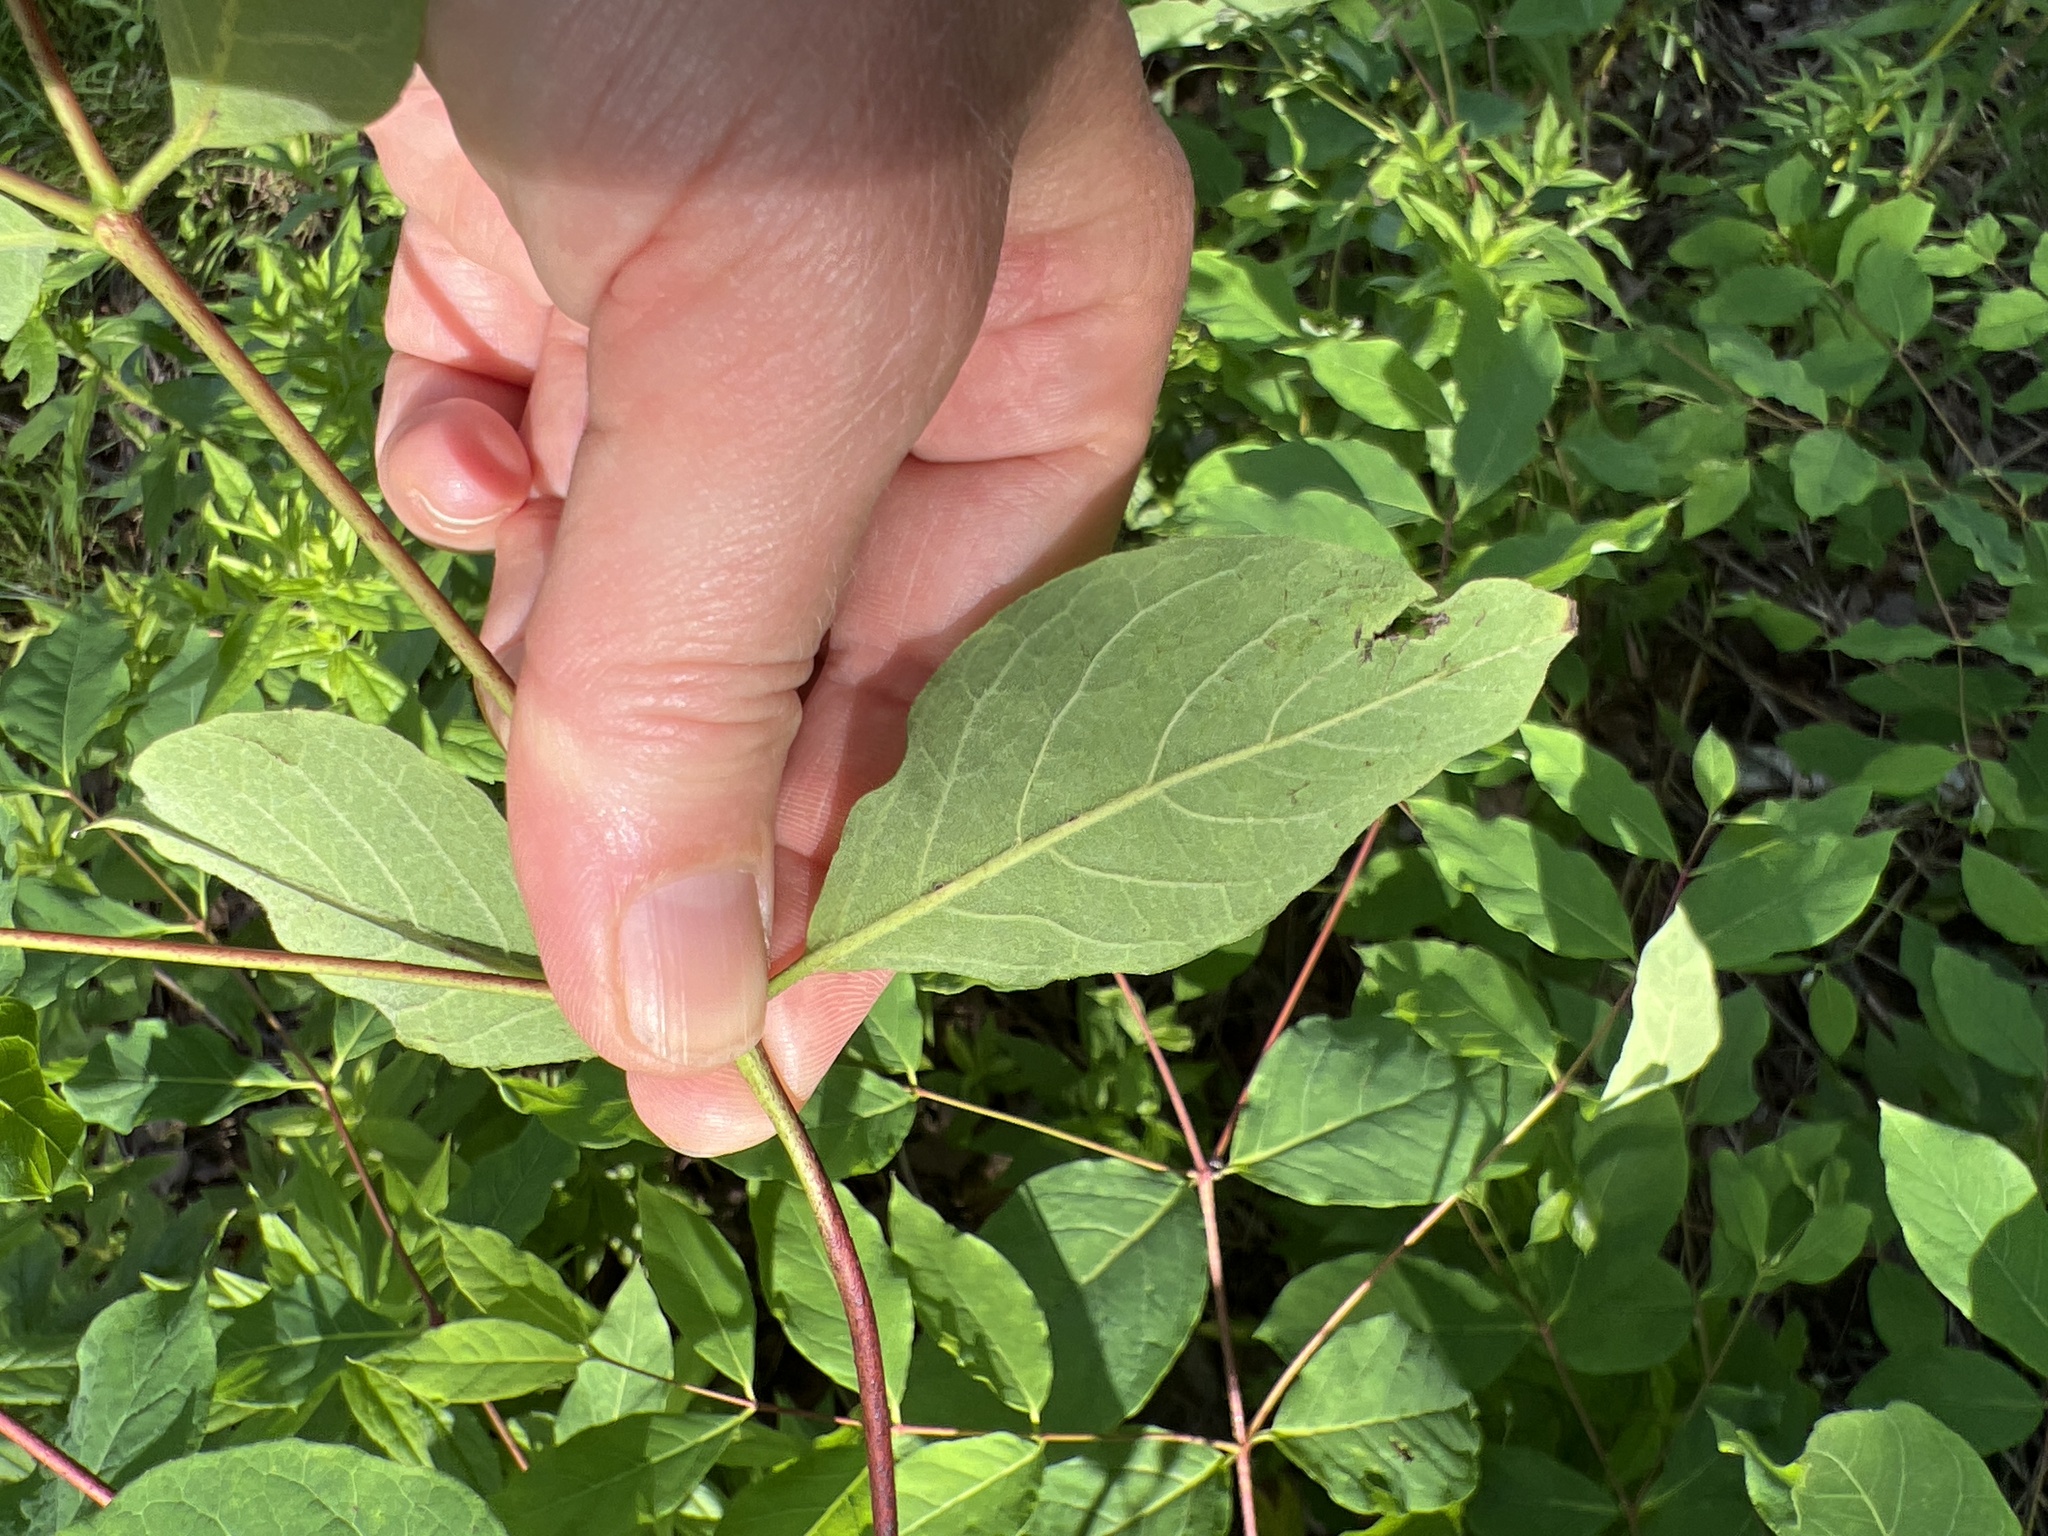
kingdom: Plantae
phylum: Tracheophyta
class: Magnoliopsida
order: Gentianales
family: Apocynaceae
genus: Apocynum
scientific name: Apocynum androsaemifolium
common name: Spreading dogbane
